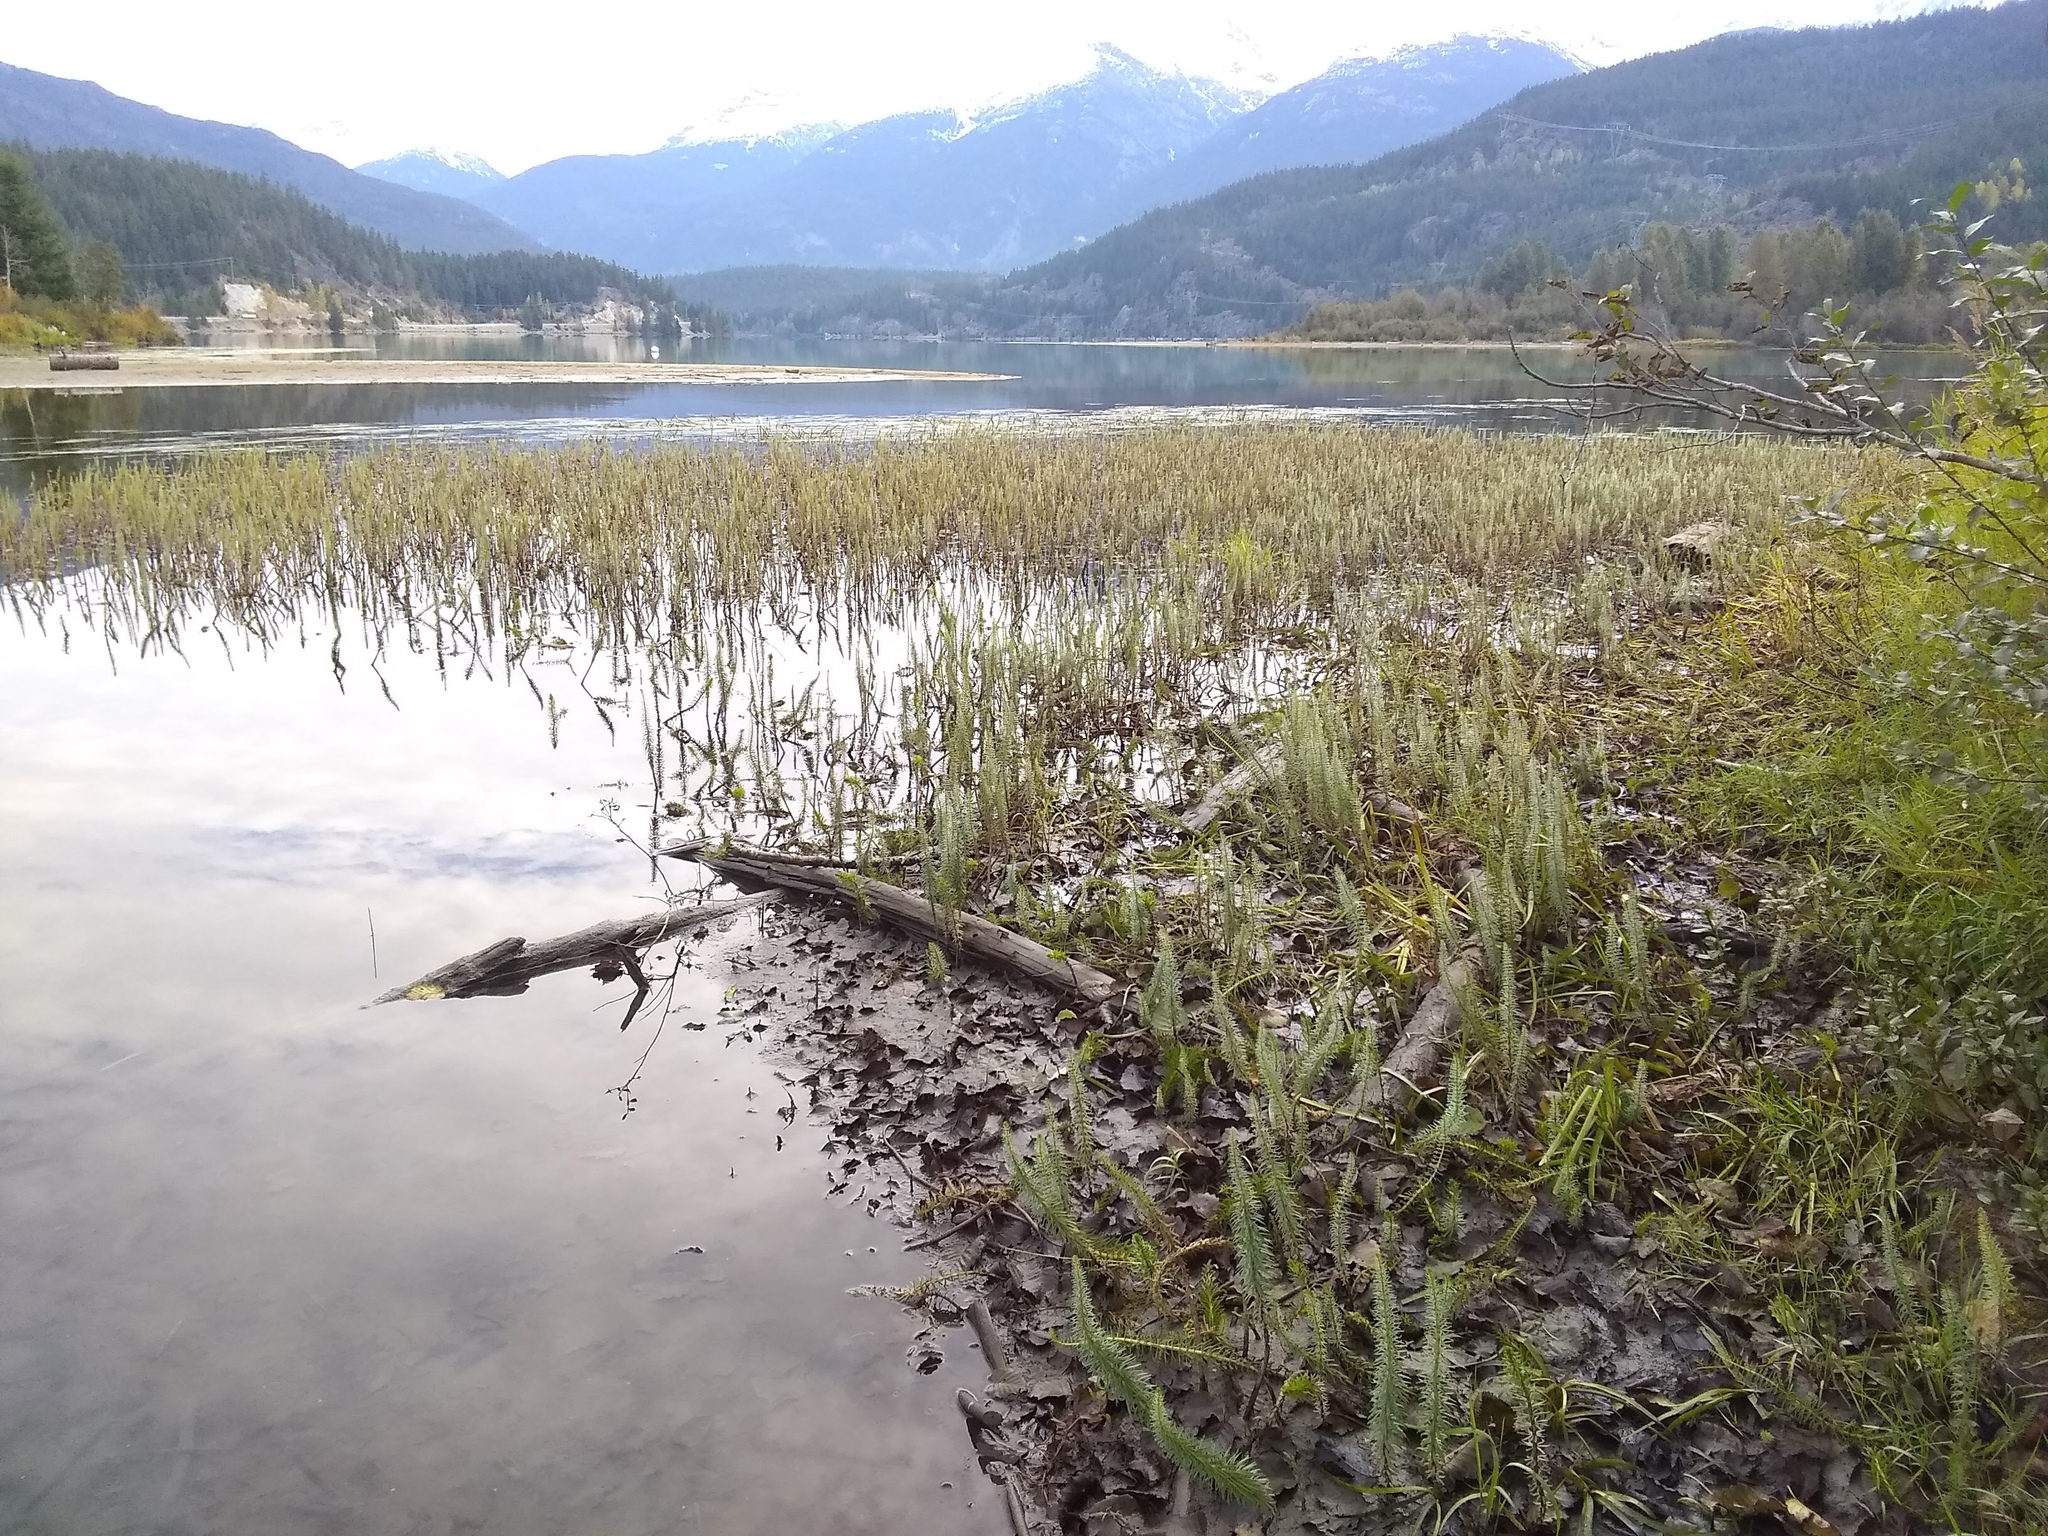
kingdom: Plantae
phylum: Tracheophyta
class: Magnoliopsida
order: Lamiales
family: Plantaginaceae
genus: Hippuris
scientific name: Hippuris vulgaris
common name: Mare's-tail
